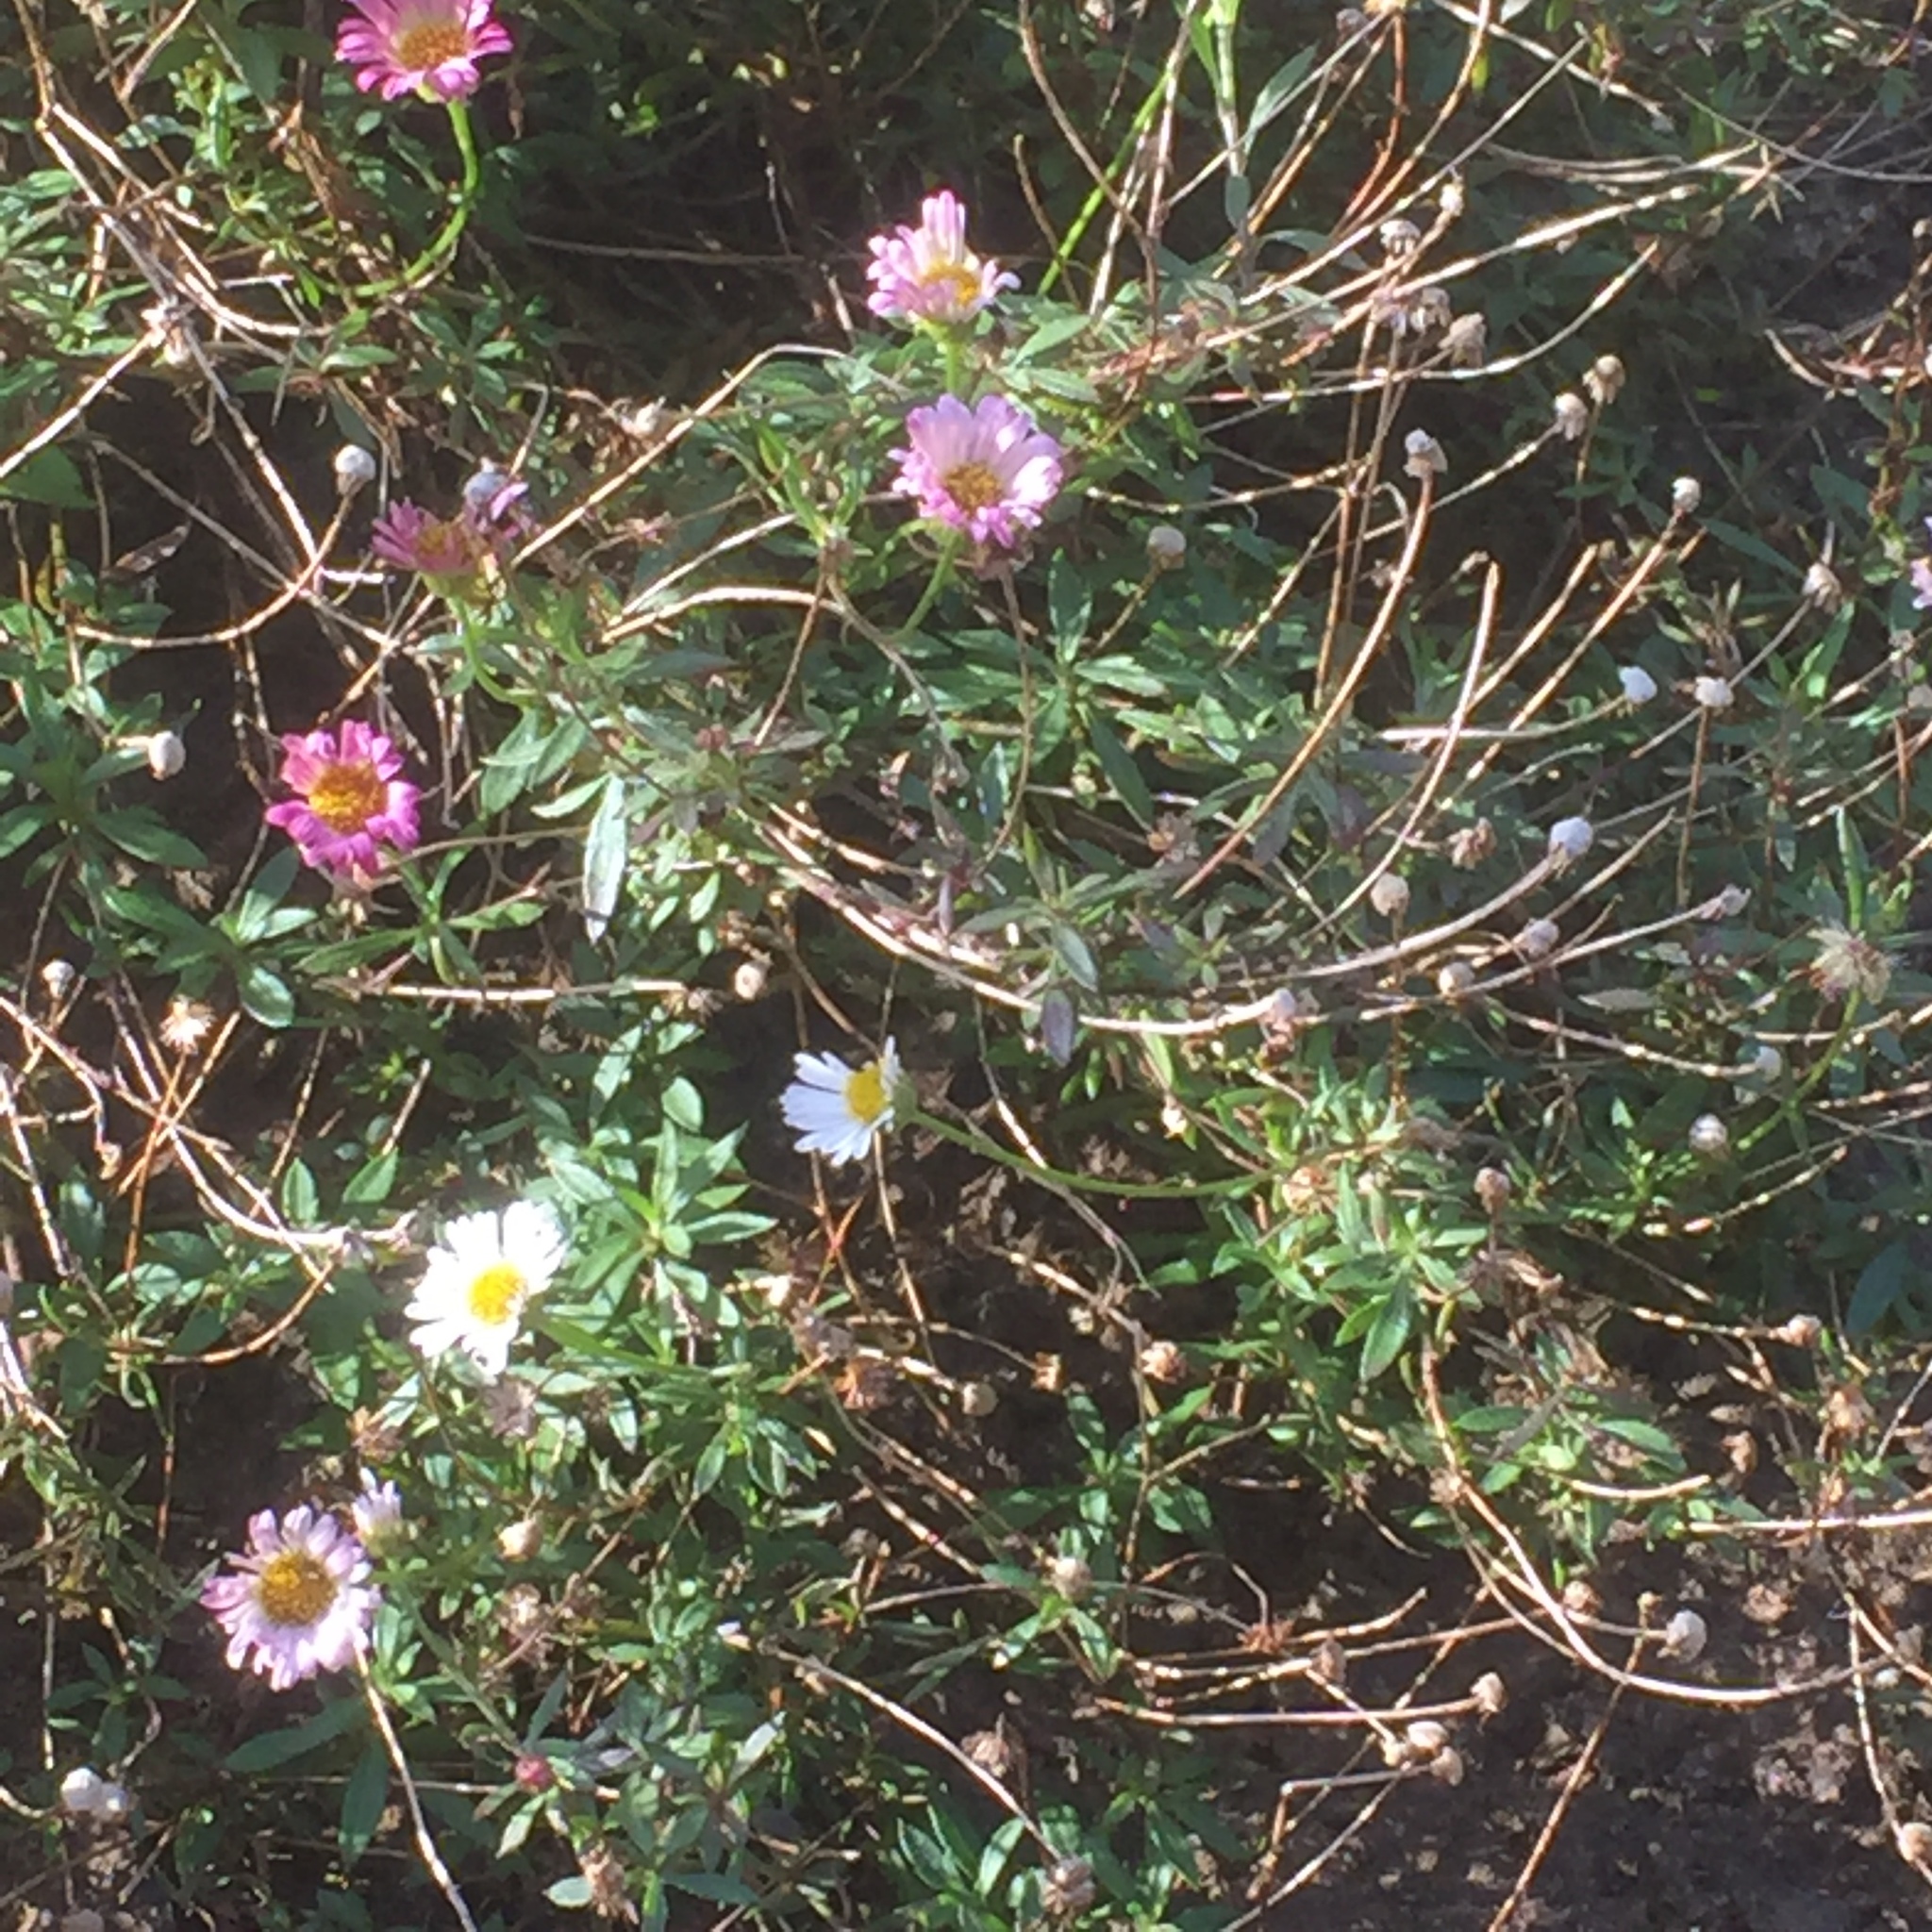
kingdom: Plantae
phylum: Tracheophyta
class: Magnoliopsida
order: Asterales
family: Asteraceae
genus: Erigeron
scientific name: Erigeron karvinskianus
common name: Mexican fleabane
